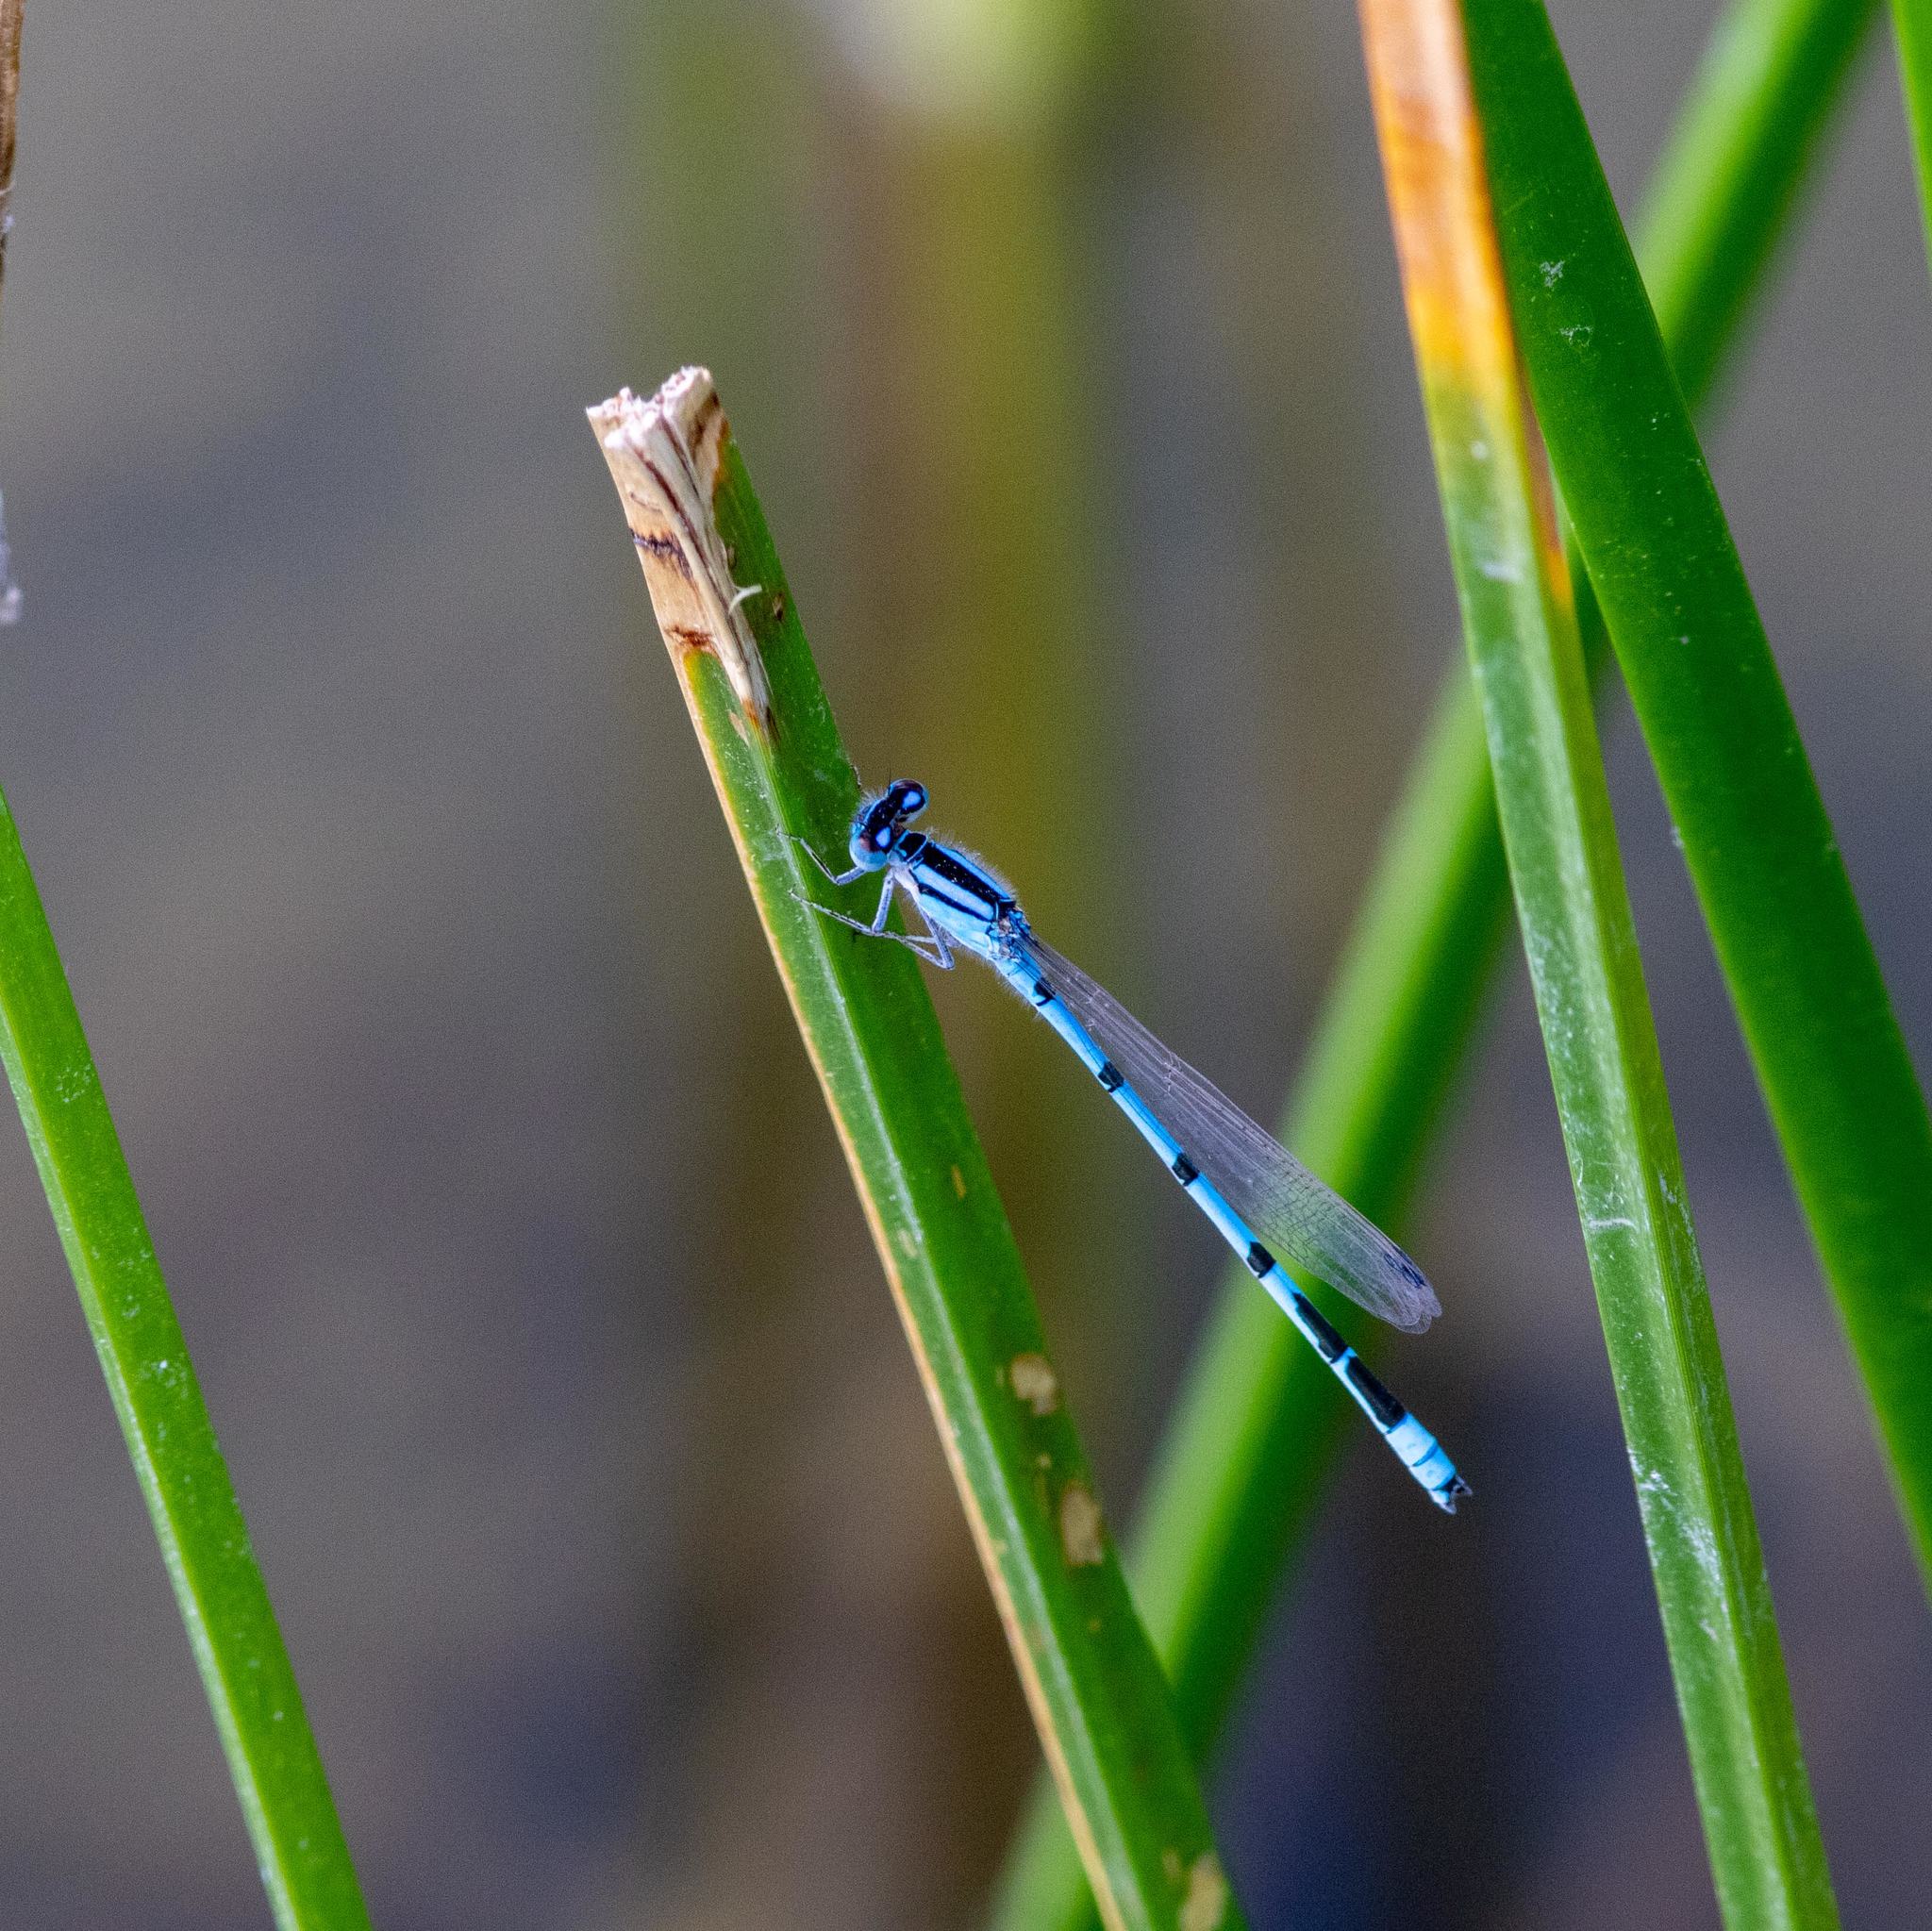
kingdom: Animalia
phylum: Arthropoda
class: Insecta
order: Odonata
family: Coenagrionidae
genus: Enallagma
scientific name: Enallagma civile
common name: Damselfly
